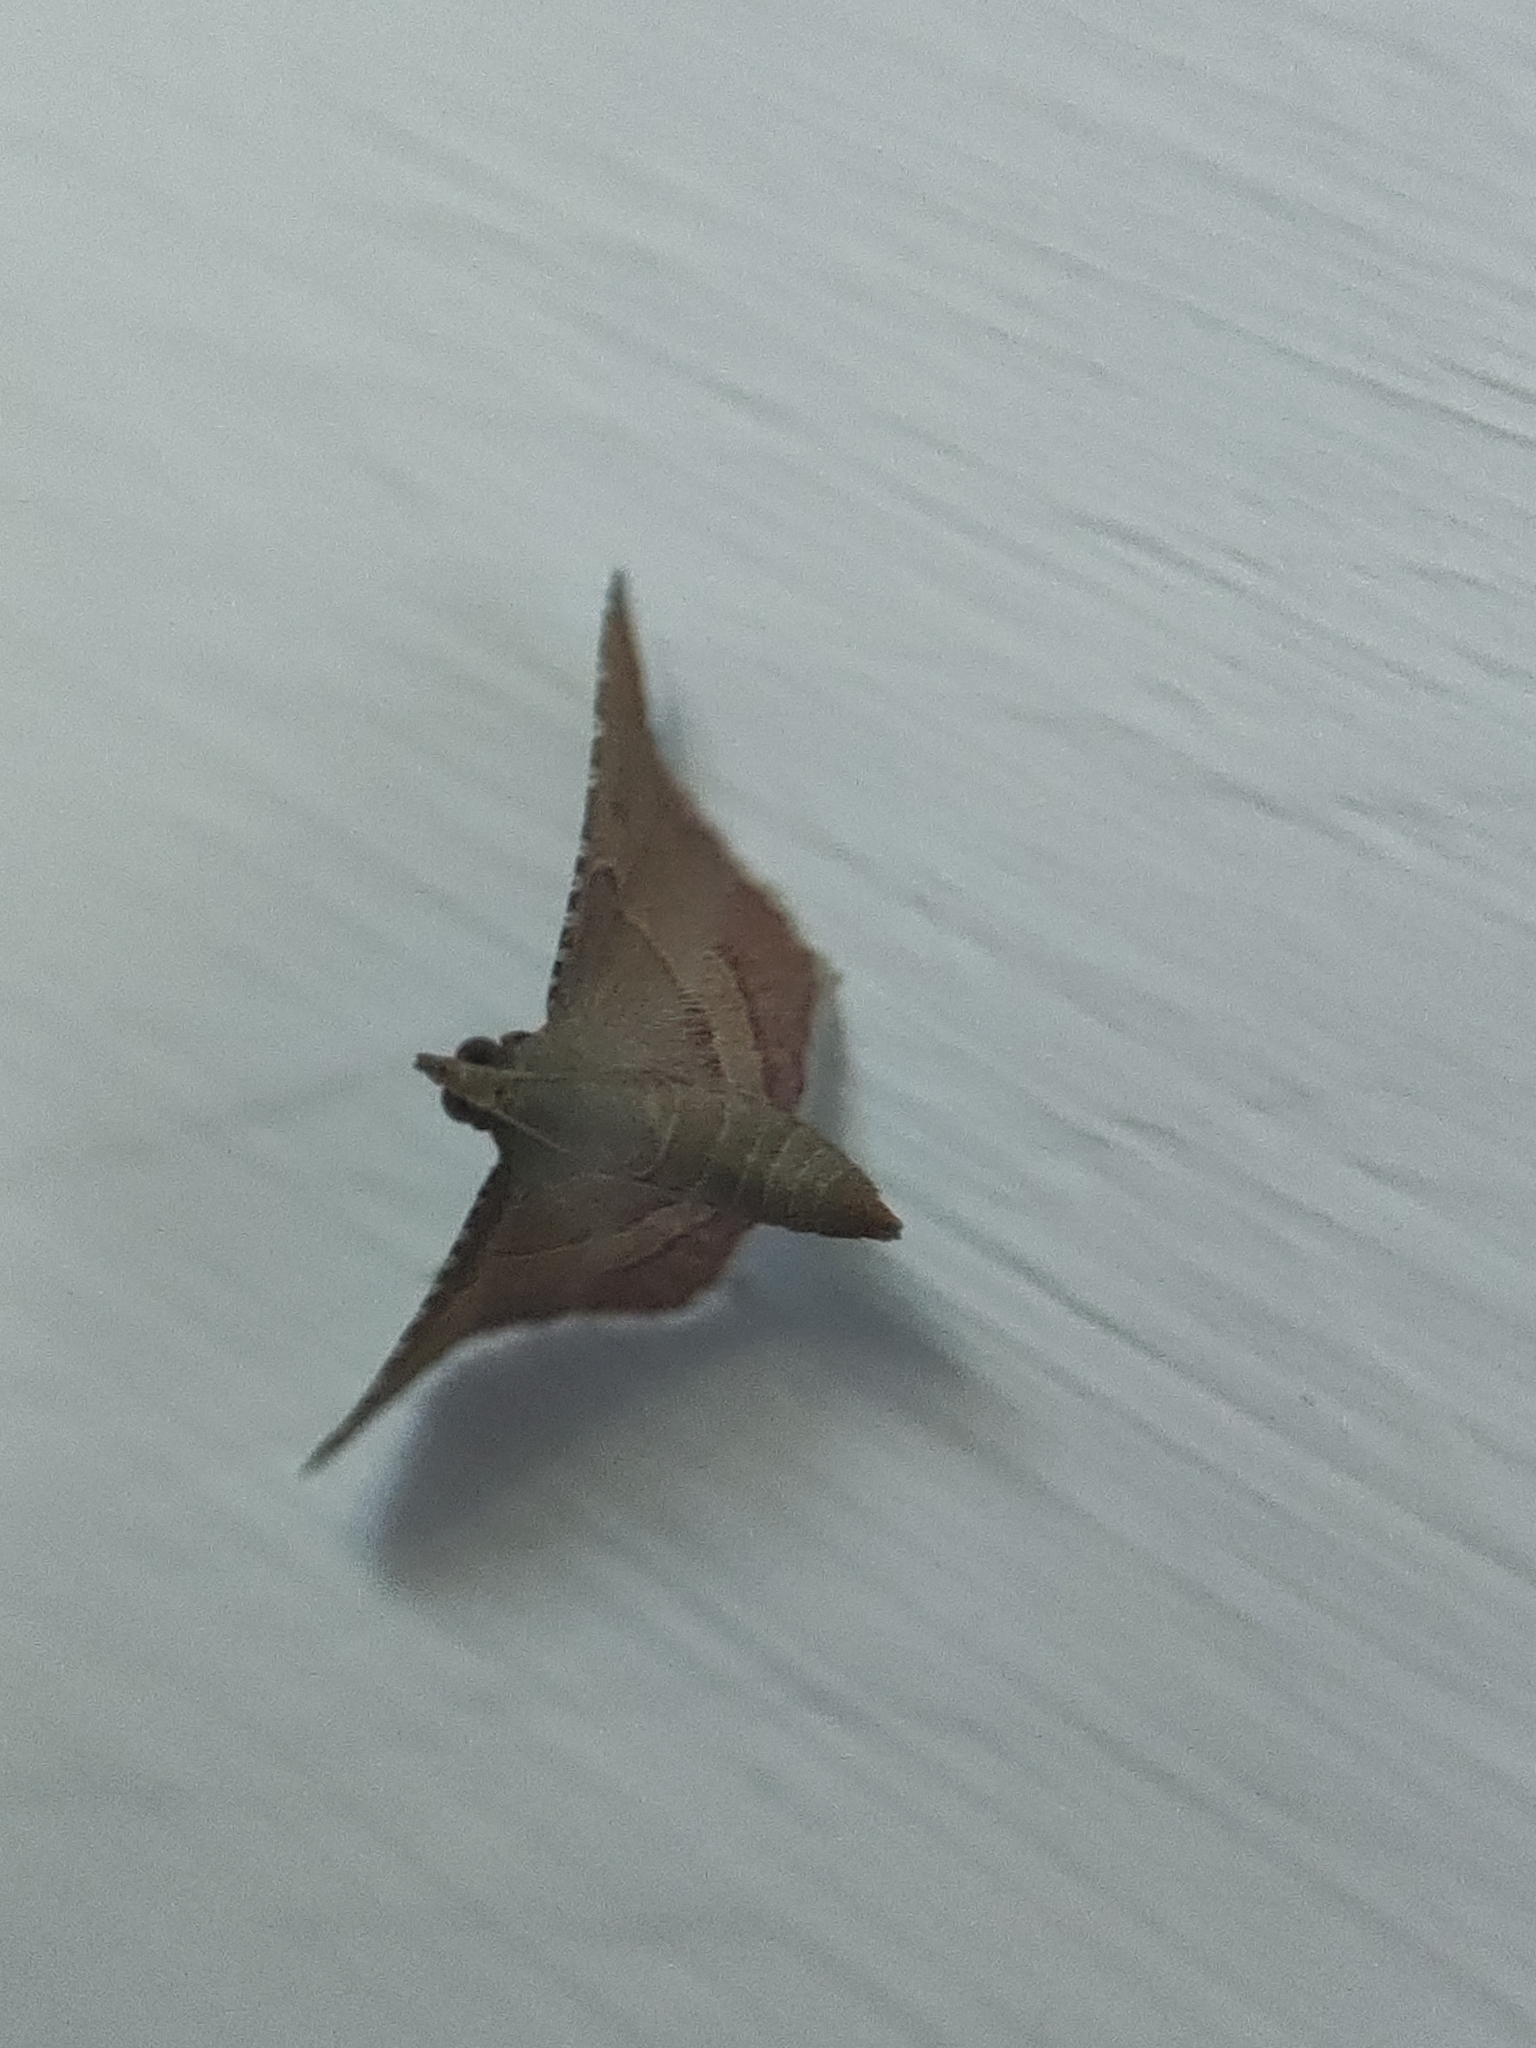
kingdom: Animalia
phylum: Arthropoda
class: Insecta
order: Lepidoptera
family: Pyralidae
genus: Endotricha
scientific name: Endotricha flammealis
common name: Rosy tabby
